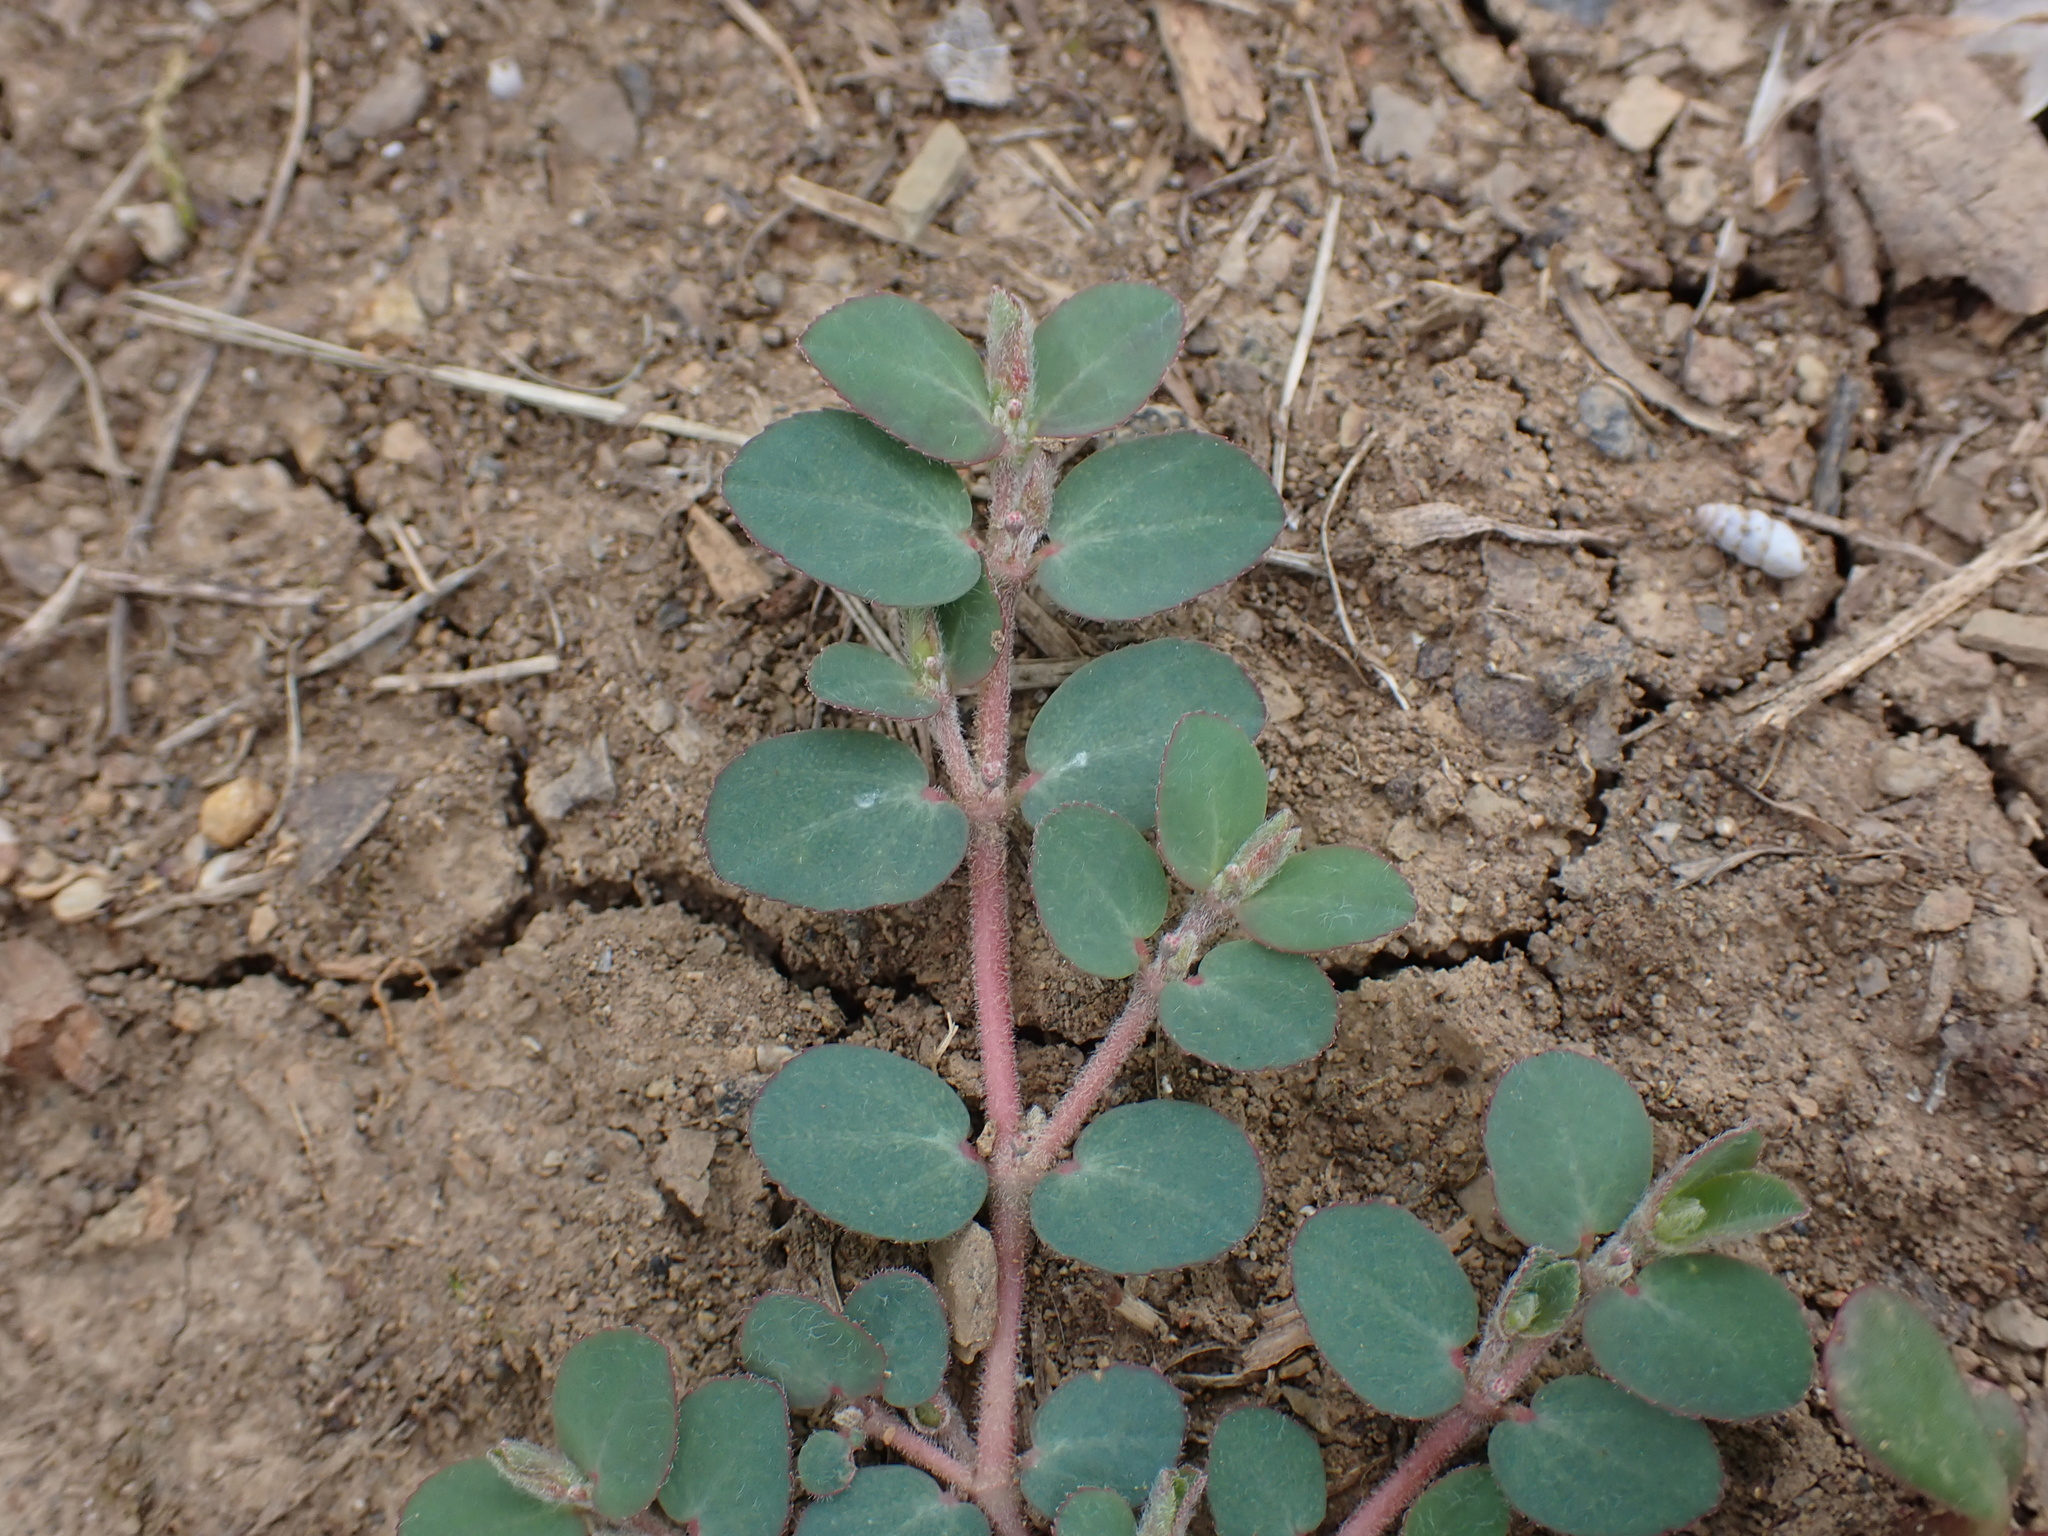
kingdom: Plantae
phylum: Tracheophyta
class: Magnoliopsida
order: Malpighiales
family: Euphorbiaceae
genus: Euphorbia
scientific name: Euphorbia prostrata
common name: Prostrate sandmat
